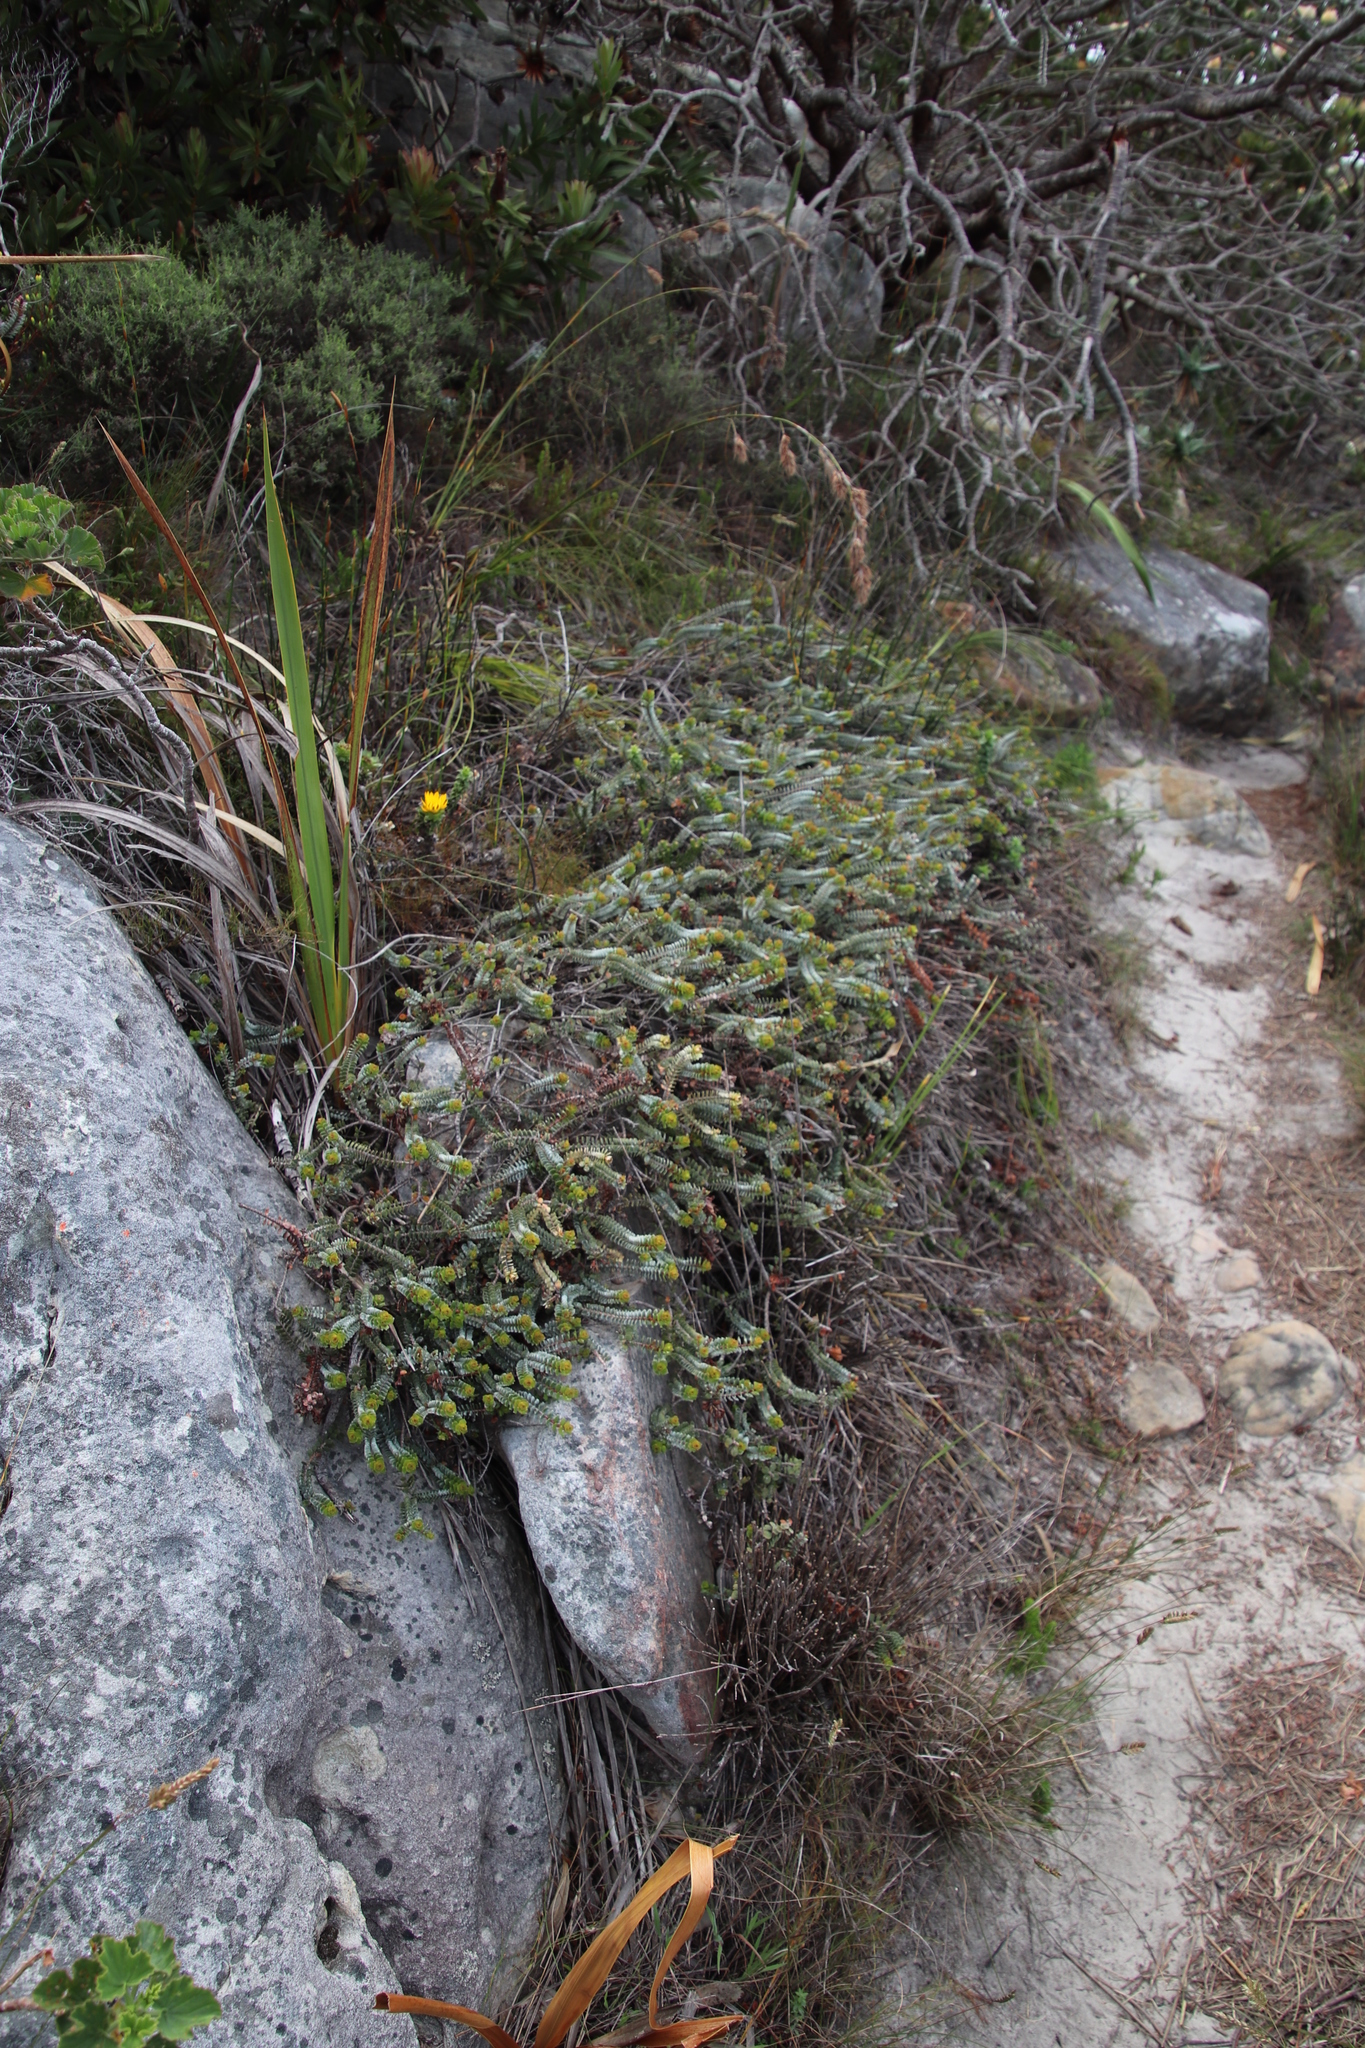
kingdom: Plantae
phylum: Tracheophyta
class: Magnoliopsida
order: Myrtales
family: Penaeaceae
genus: Saltera
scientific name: Saltera sarcocolla
